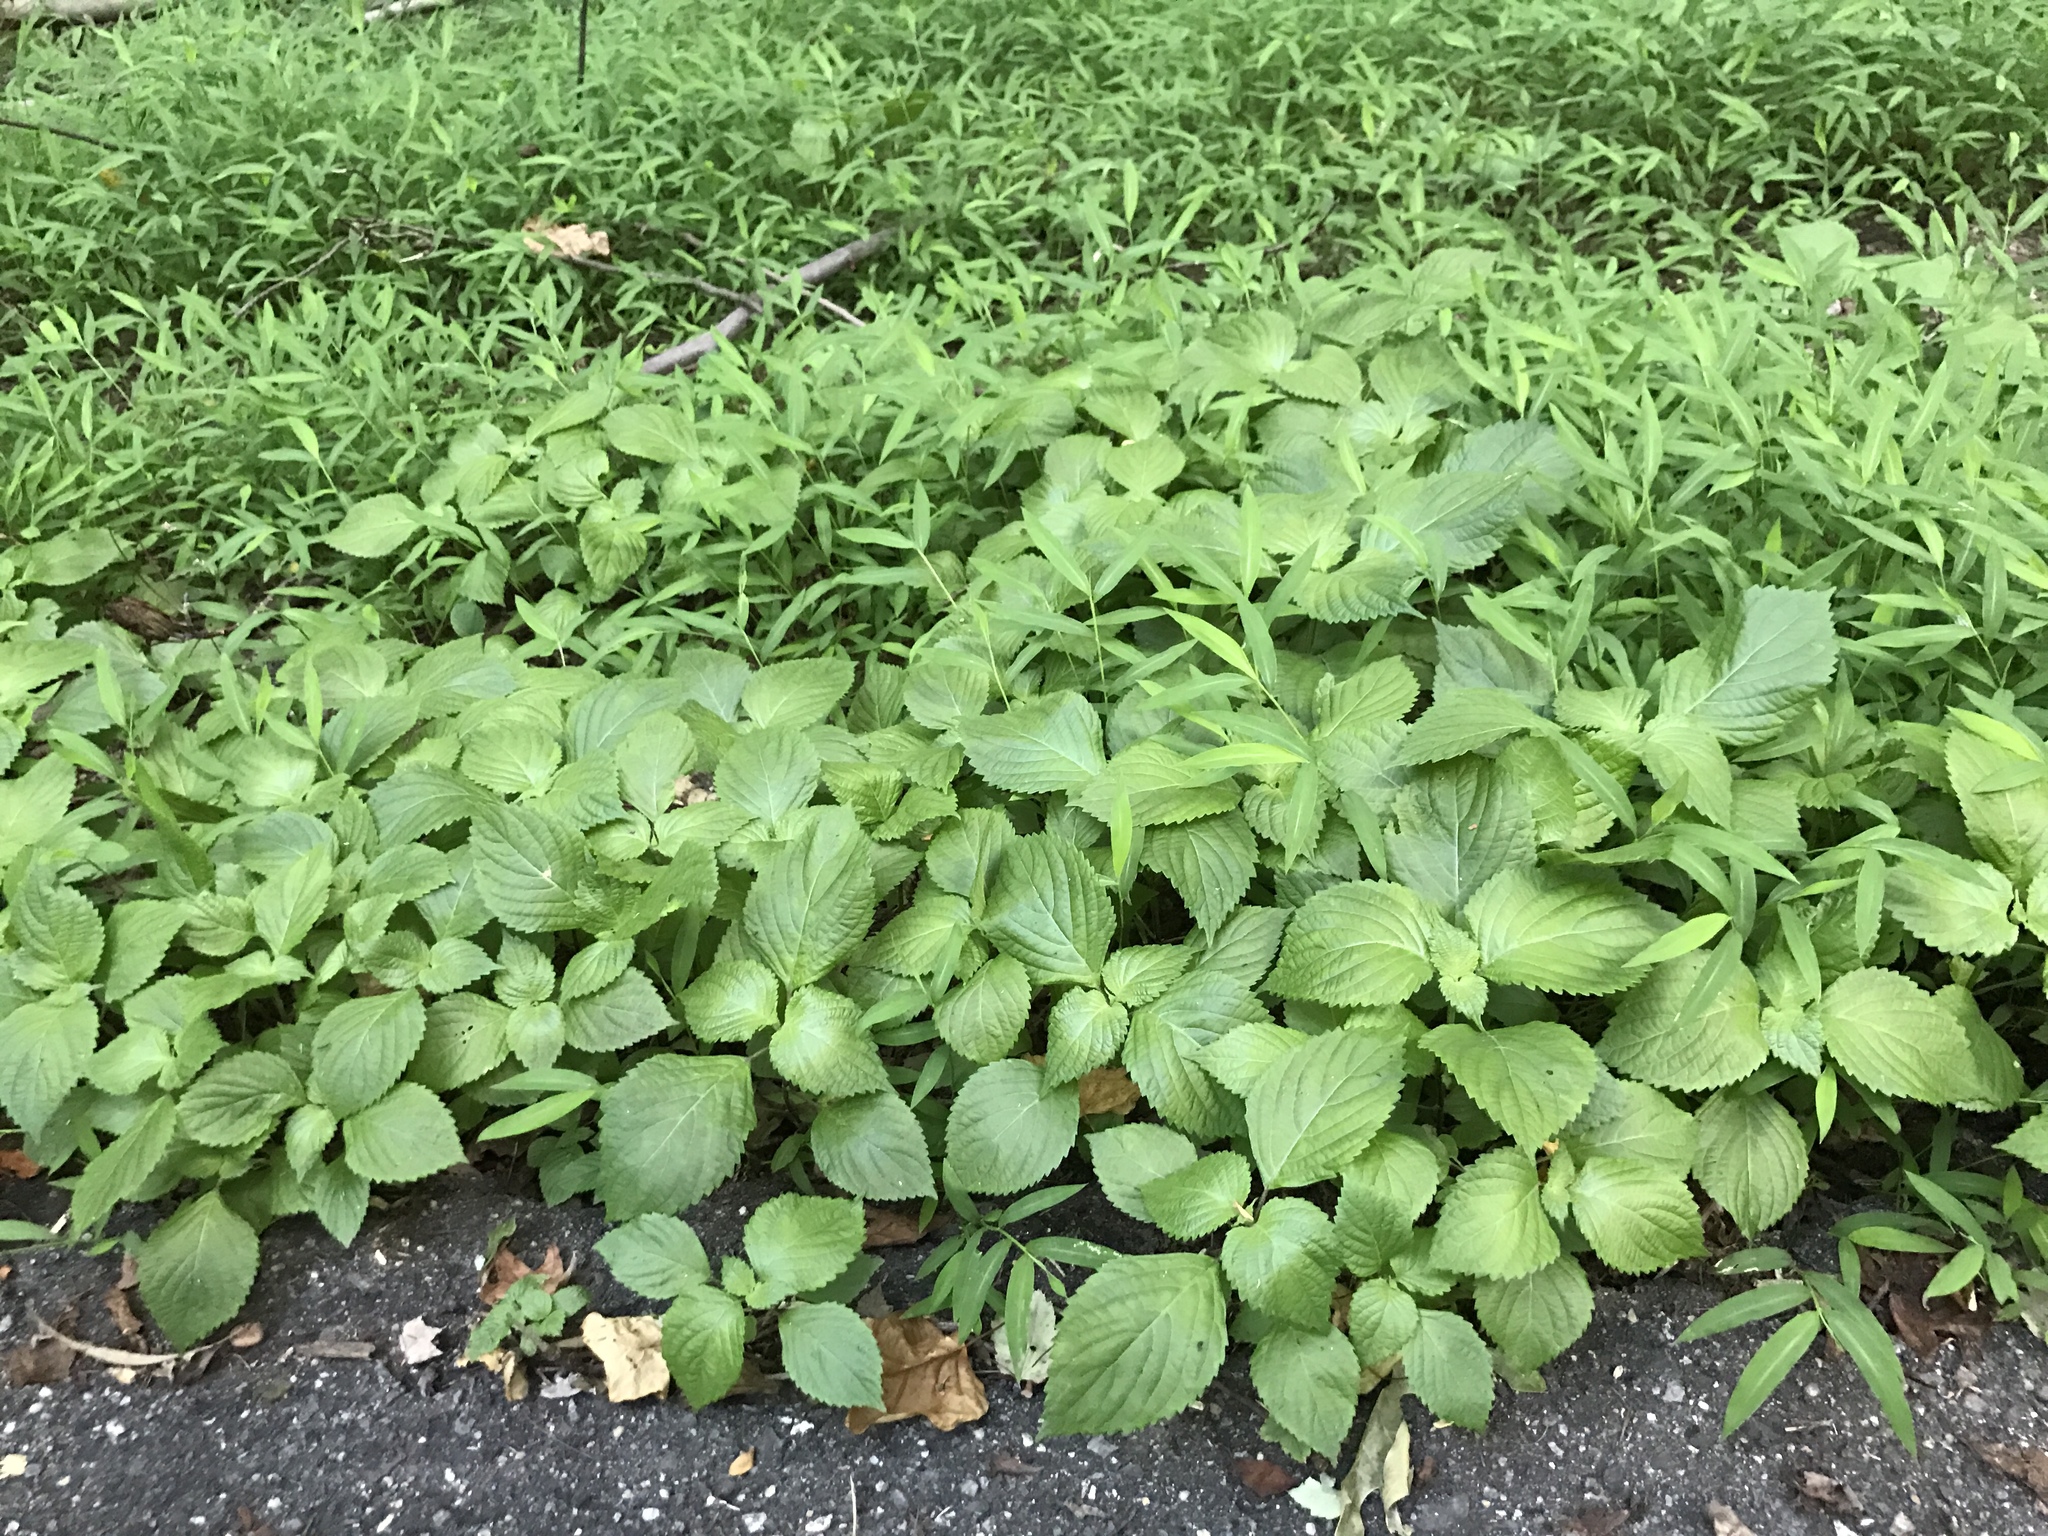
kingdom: Plantae
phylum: Tracheophyta
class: Magnoliopsida
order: Lamiales
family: Lamiaceae
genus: Perilla
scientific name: Perilla frutescens
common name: Perilla
